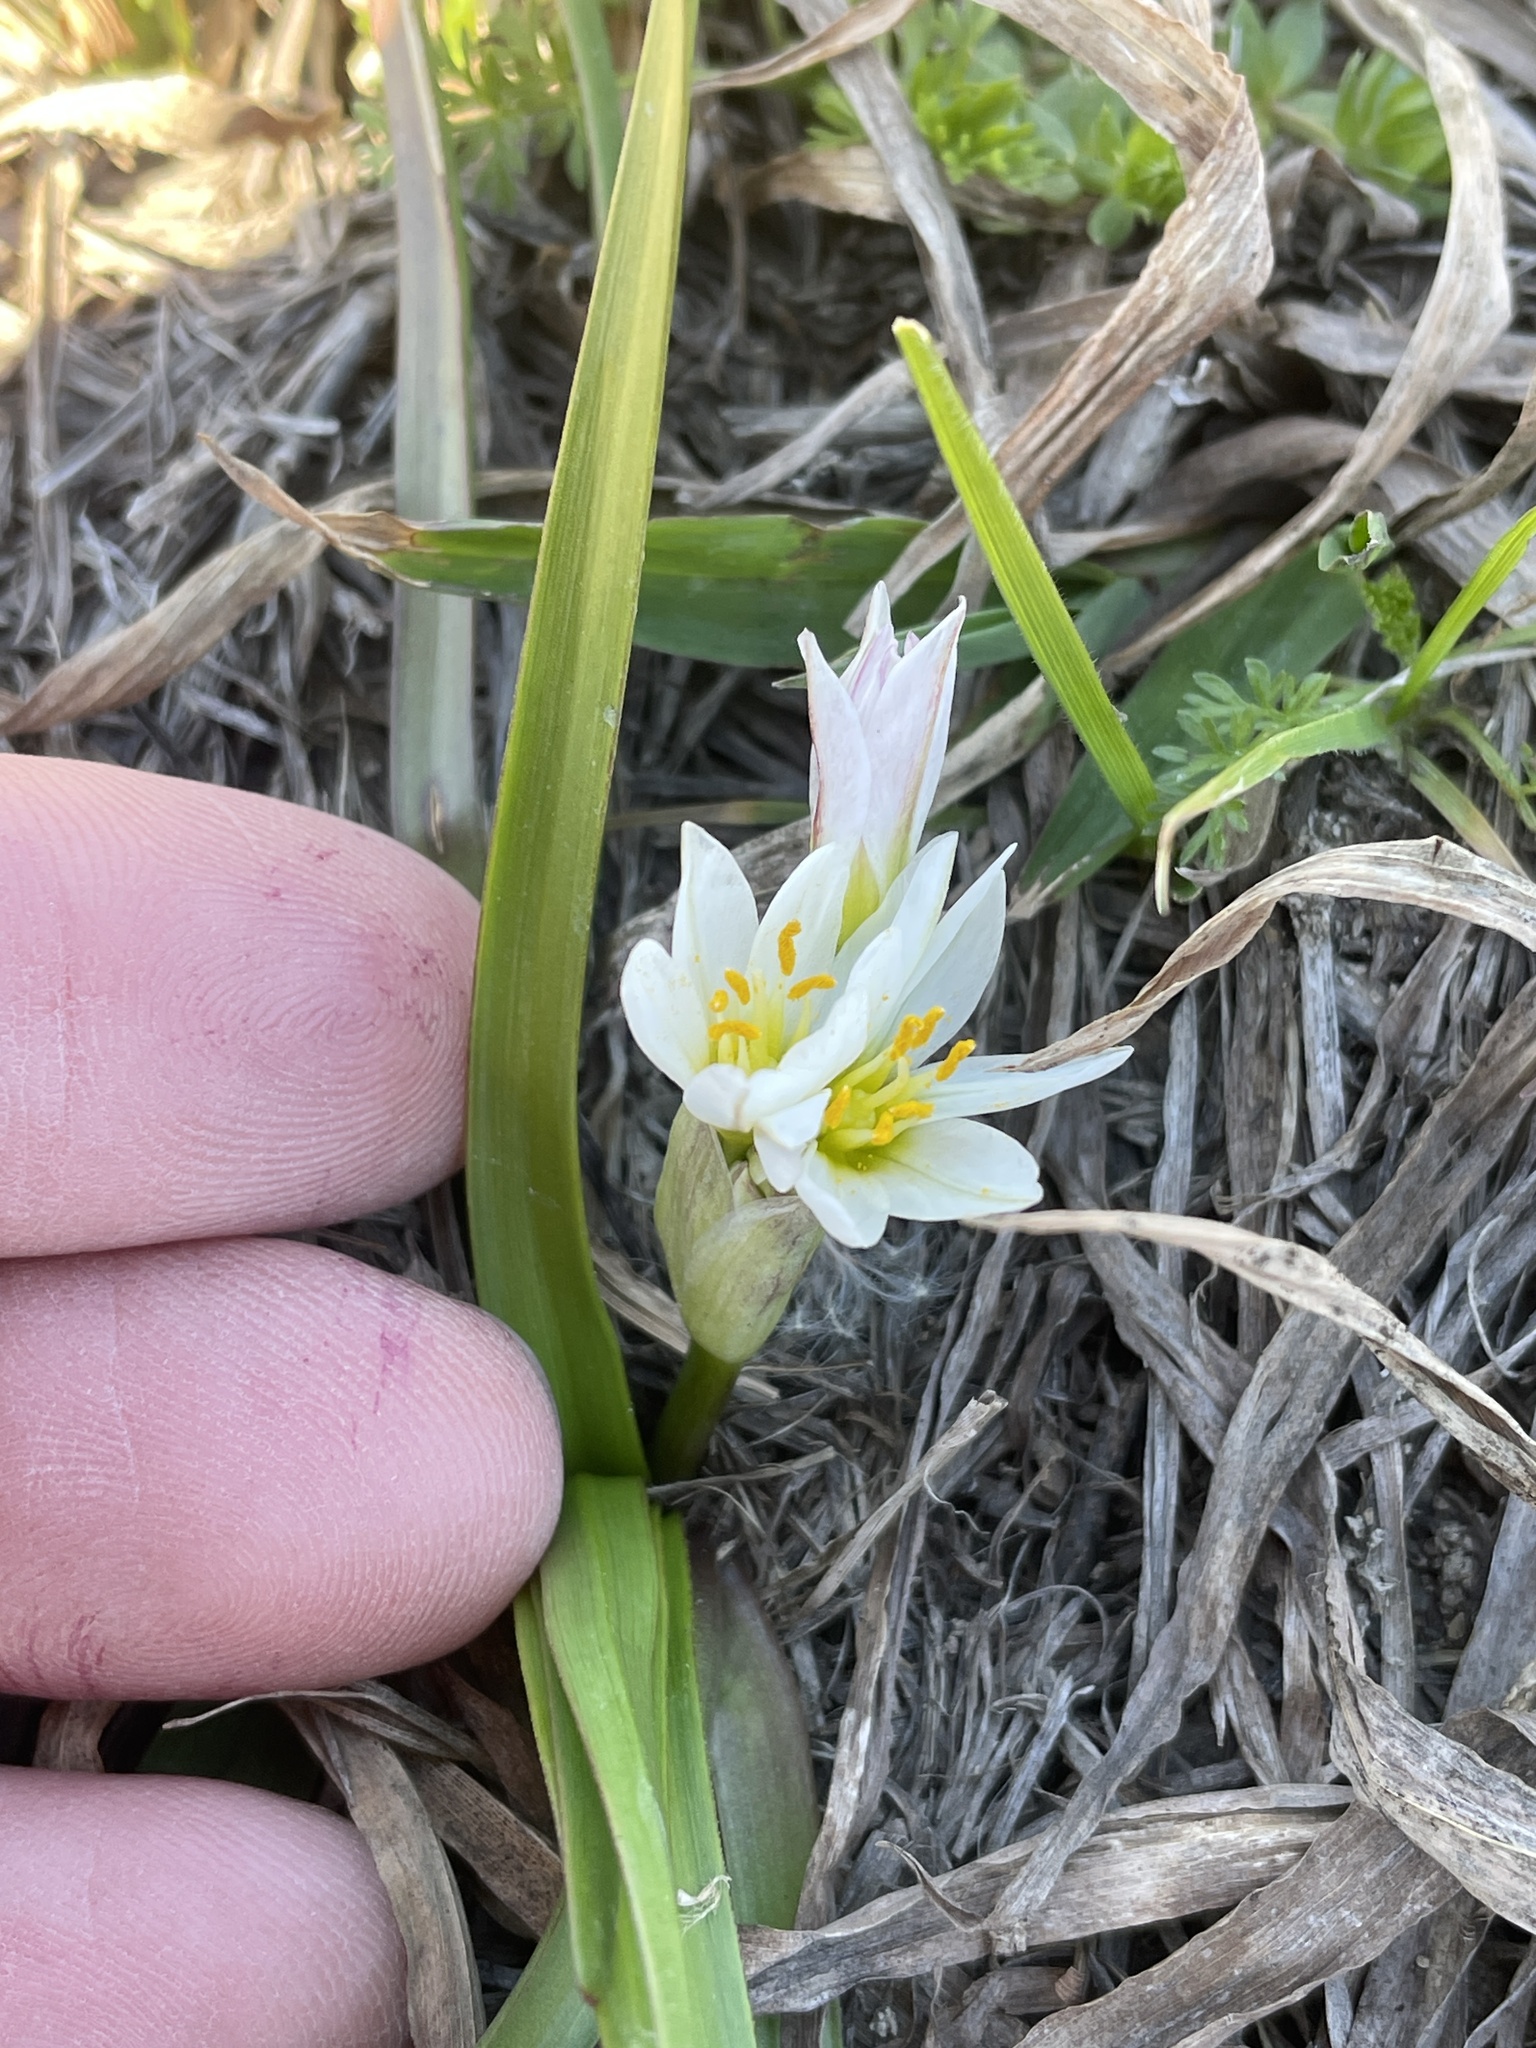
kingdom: Plantae
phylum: Tracheophyta
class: Liliopsida
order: Asparagales
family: Amaryllidaceae
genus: Nothoscordum
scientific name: Nothoscordum bivalve
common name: Crow-poison
